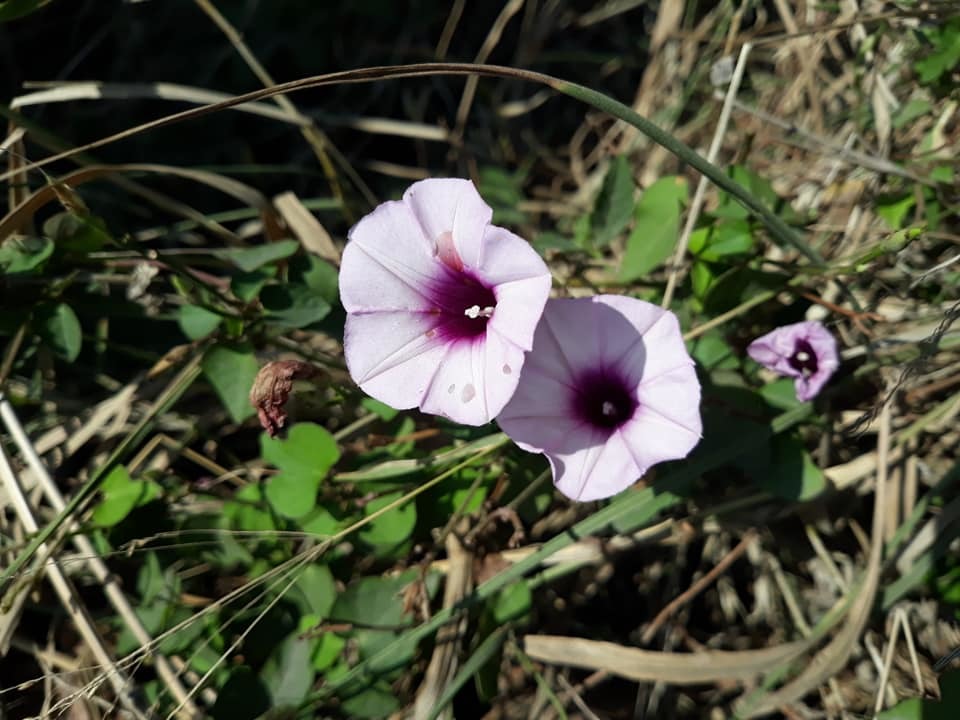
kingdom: Plantae
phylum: Tracheophyta
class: Magnoliopsida
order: Solanales
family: Convolvulaceae
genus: Ipomoea
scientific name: Ipomoea trifida
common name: Cotton morningglory
